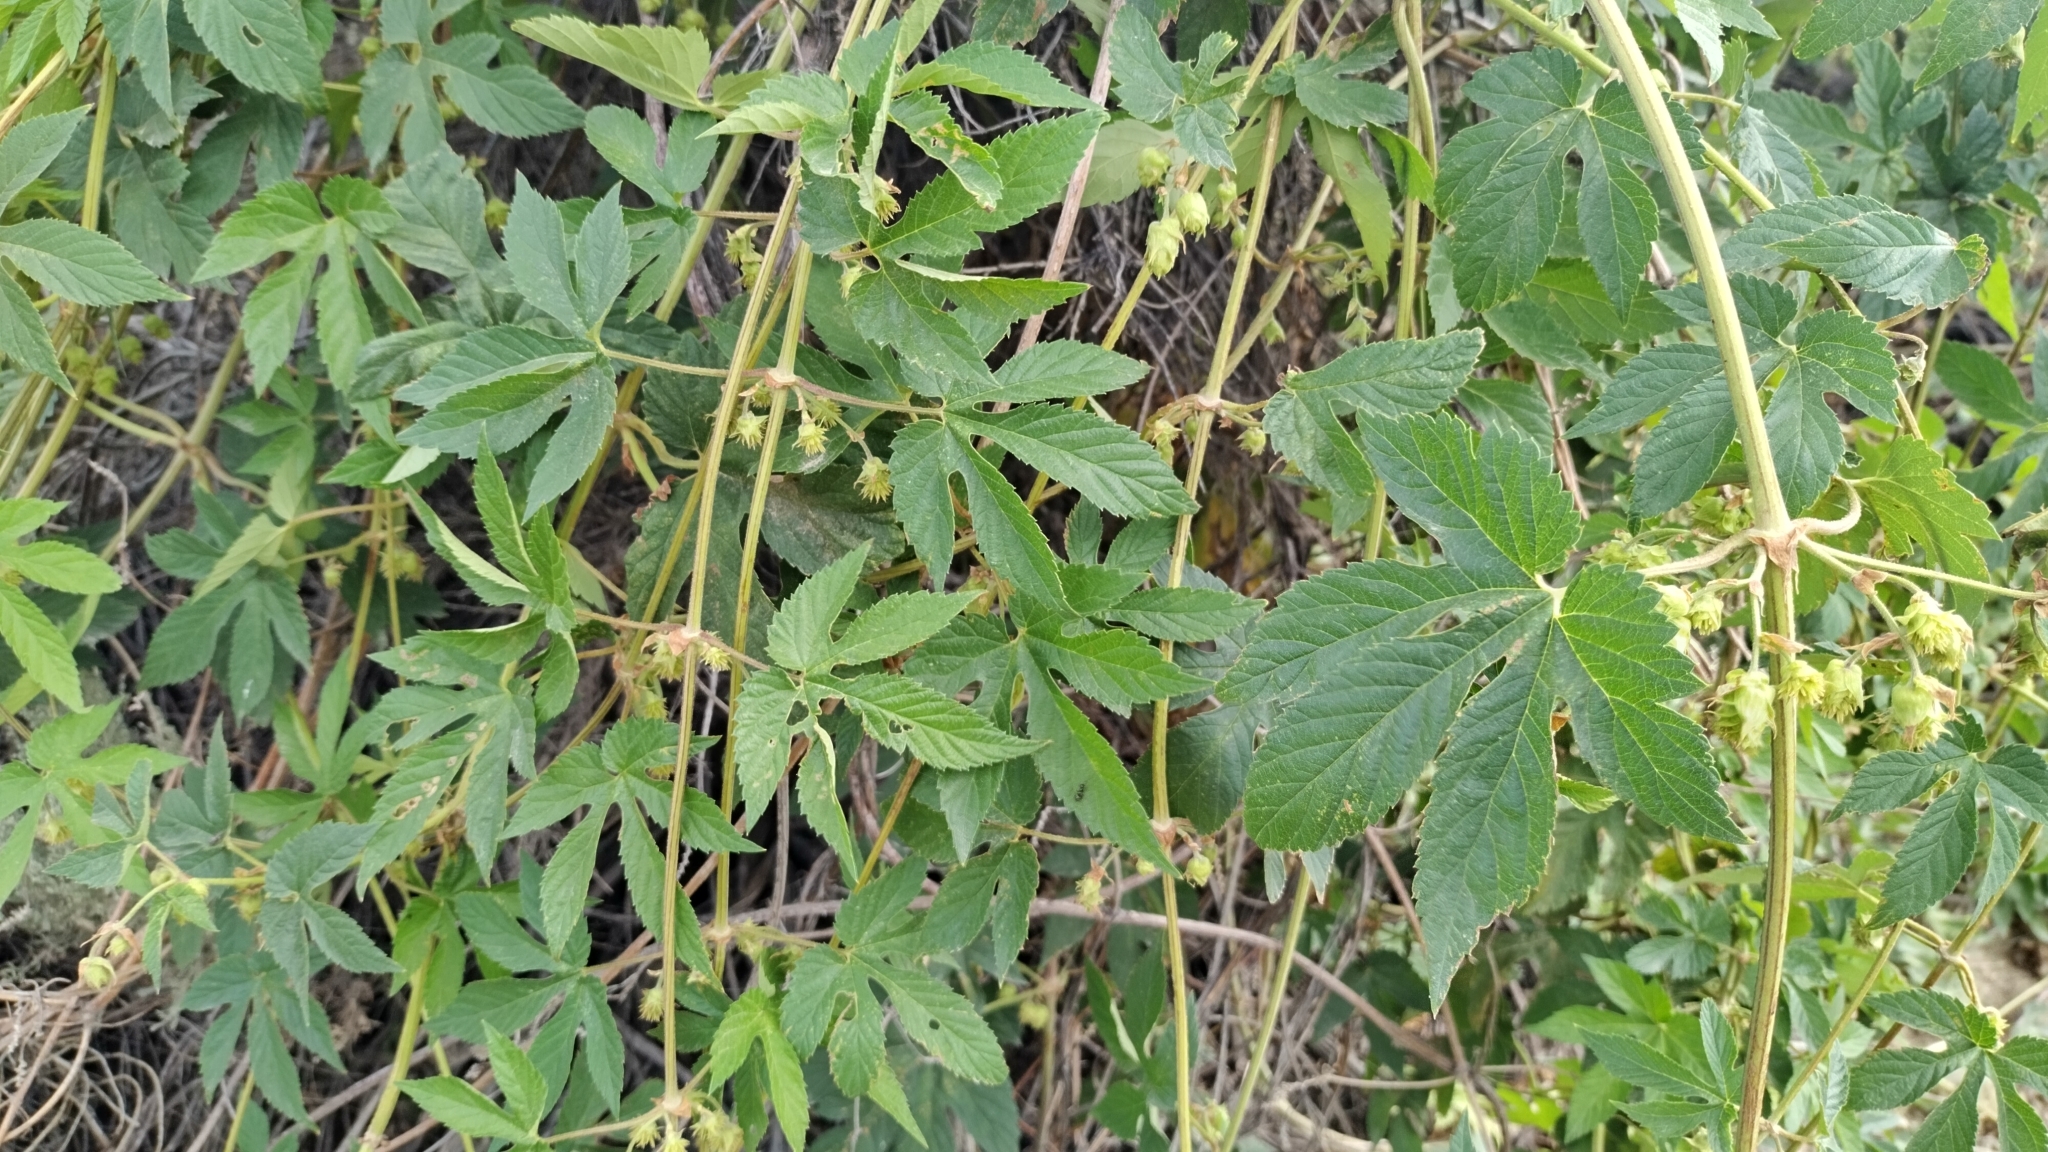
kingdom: Plantae
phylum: Tracheophyta
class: Magnoliopsida
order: Rosales
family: Cannabaceae
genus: Humulus
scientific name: Humulus lupulus
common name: Hop
